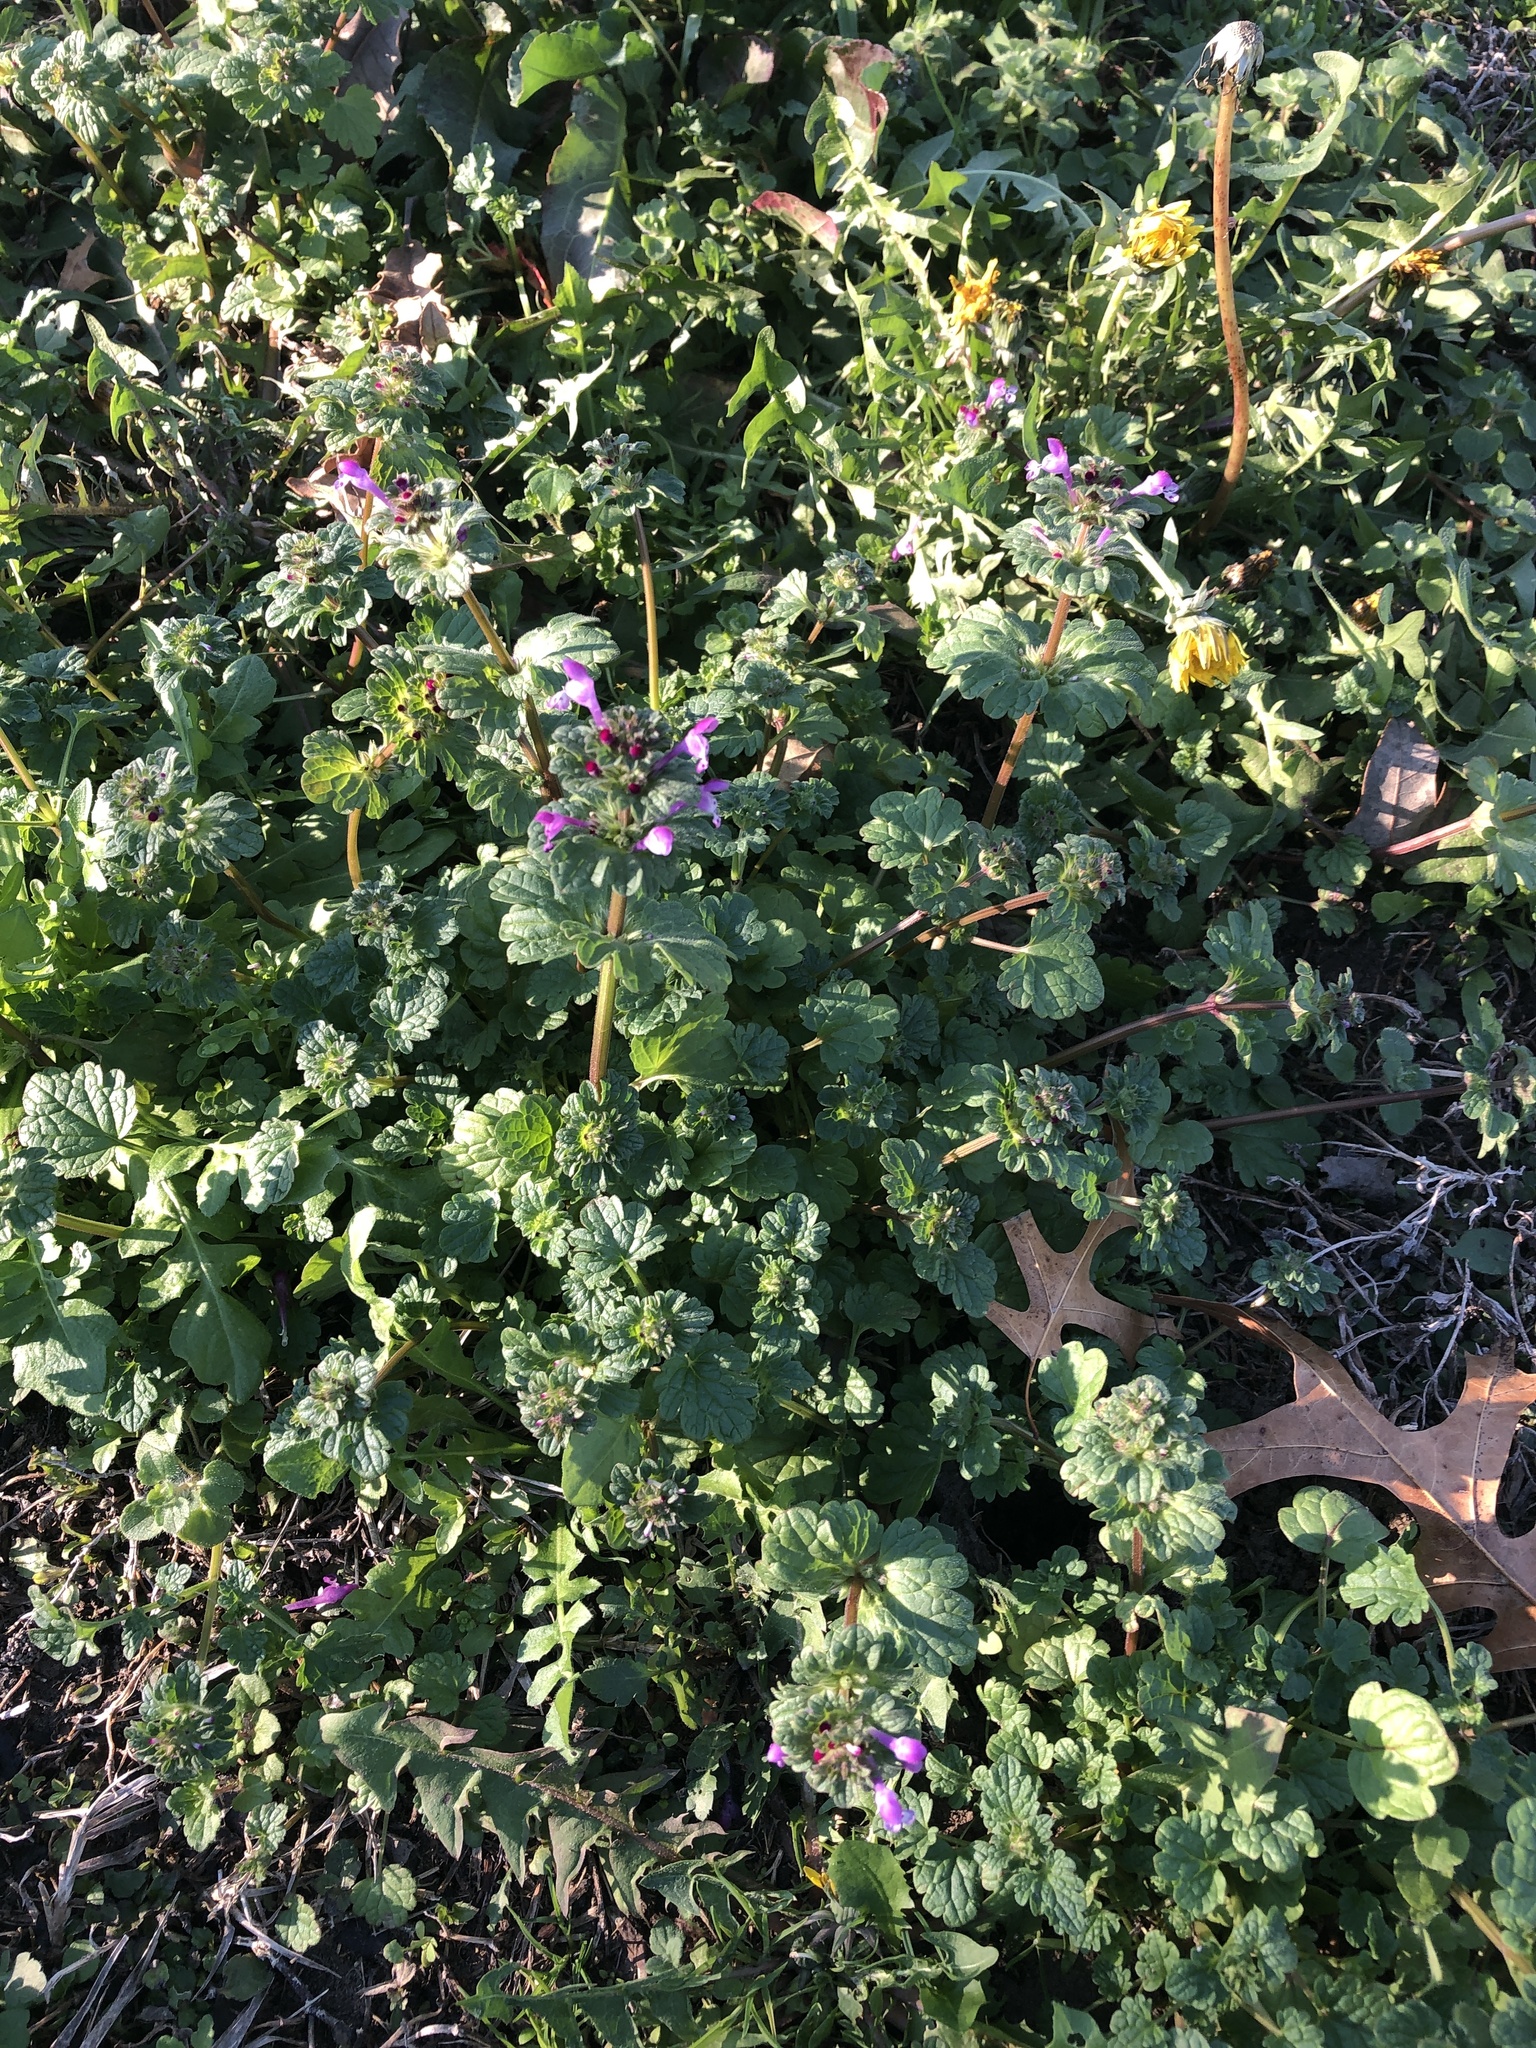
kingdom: Plantae
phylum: Tracheophyta
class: Magnoliopsida
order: Lamiales
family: Lamiaceae
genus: Lamium
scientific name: Lamium amplexicaule
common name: Henbit dead-nettle
